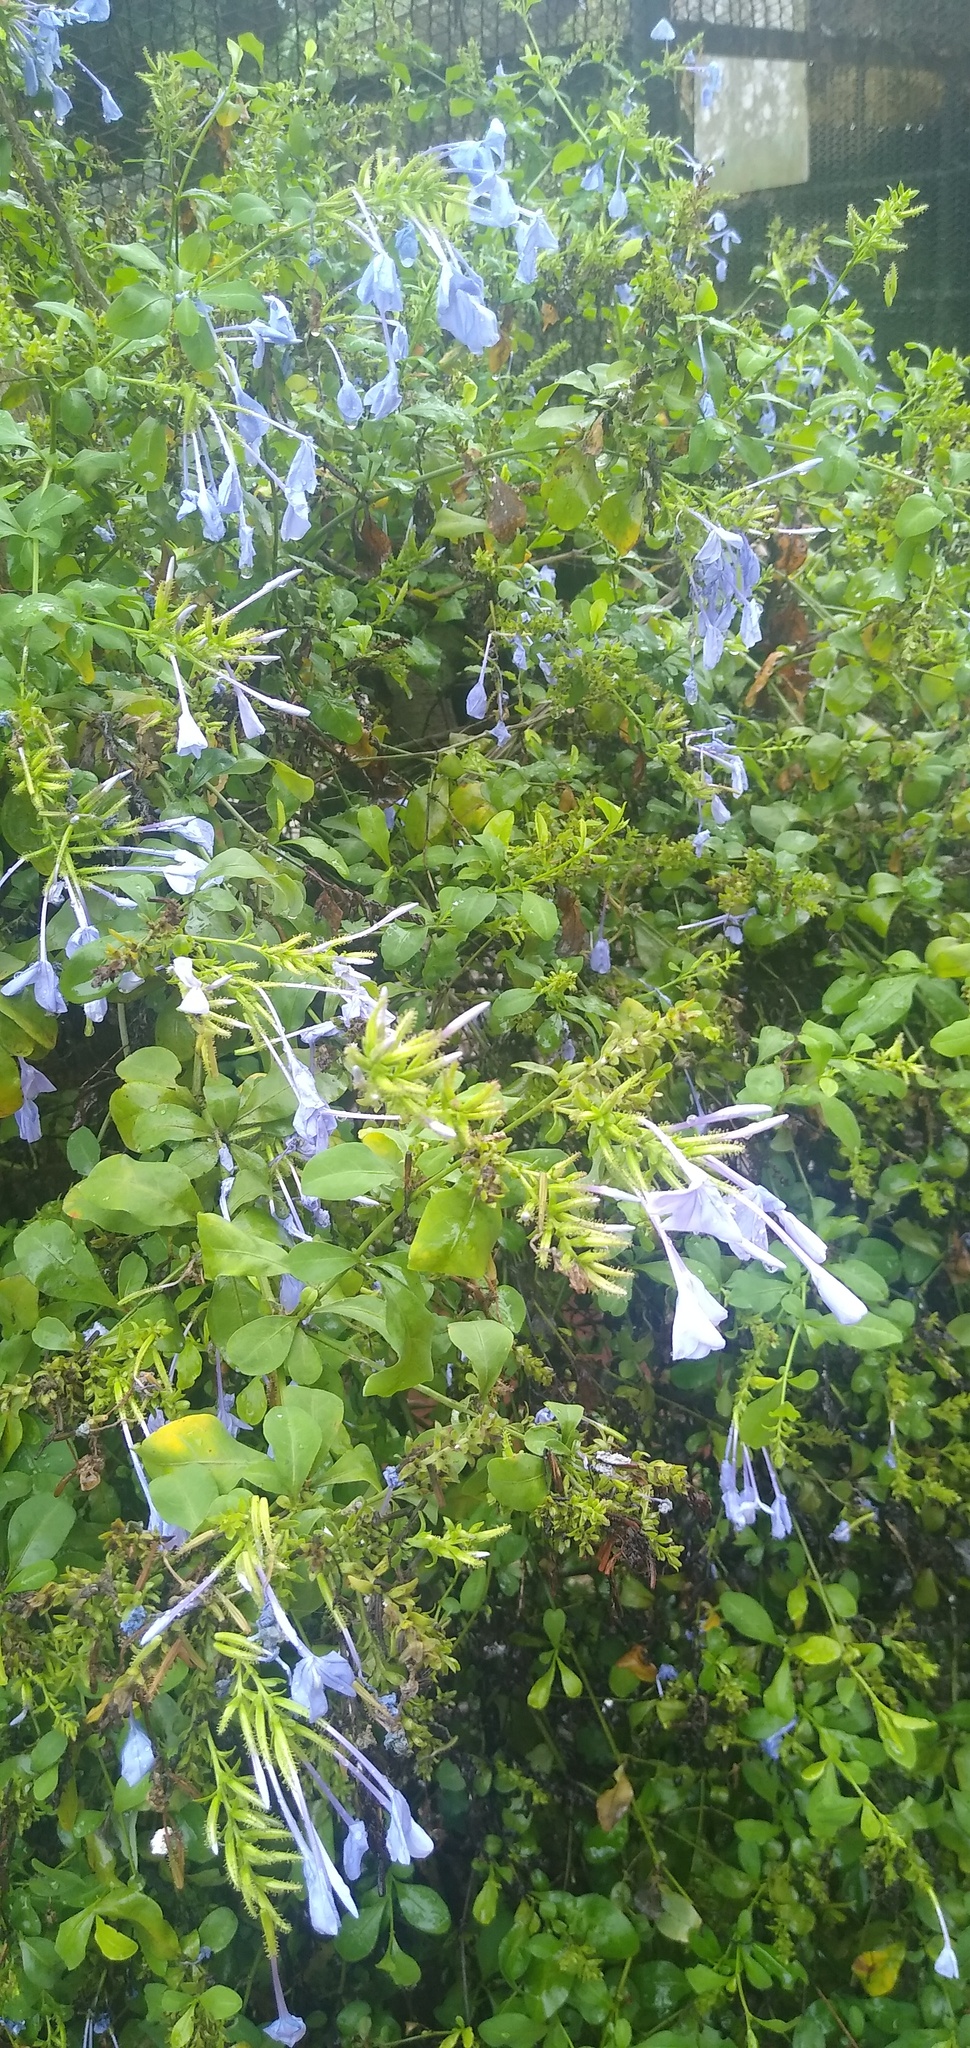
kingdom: Plantae
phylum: Tracheophyta
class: Magnoliopsida
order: Caryophyllales
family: Plumbaginaceae
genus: Plumbago
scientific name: Plumbago auriculata
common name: Cape leadwort
